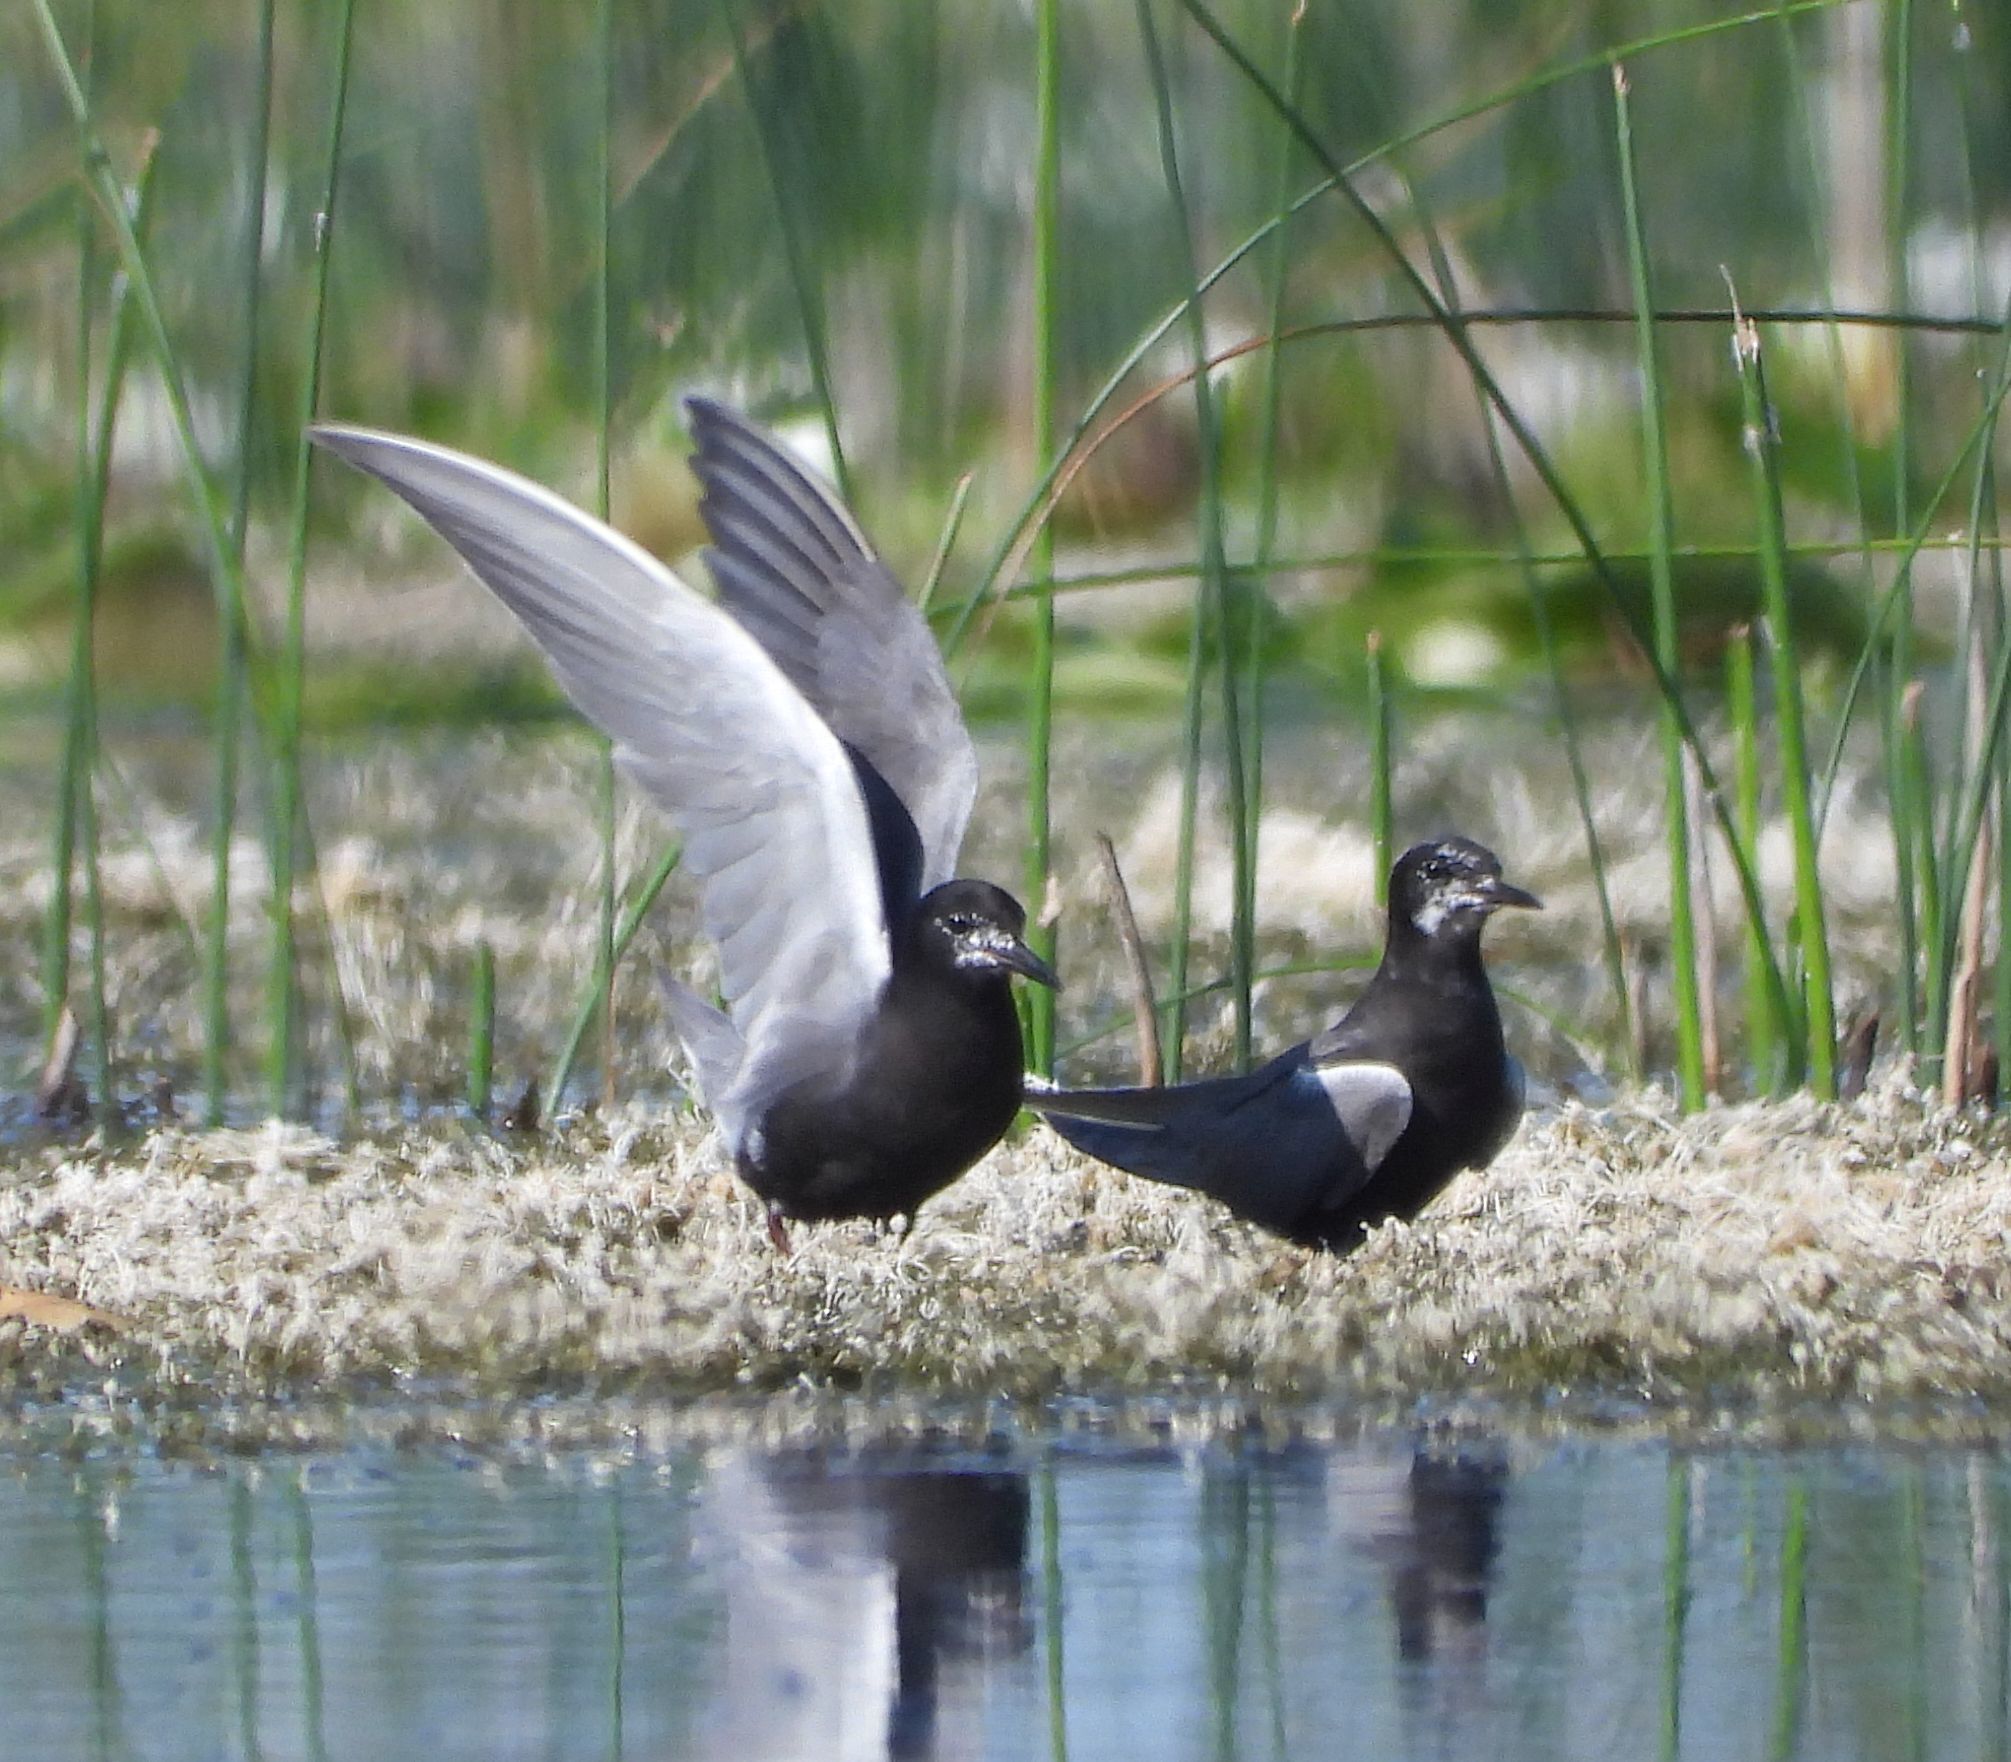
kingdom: Animalia
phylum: Chordata
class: Aves
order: Charadriiformes
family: Laridae
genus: Chlidonias
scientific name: Chlidonias niger
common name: Black tern
